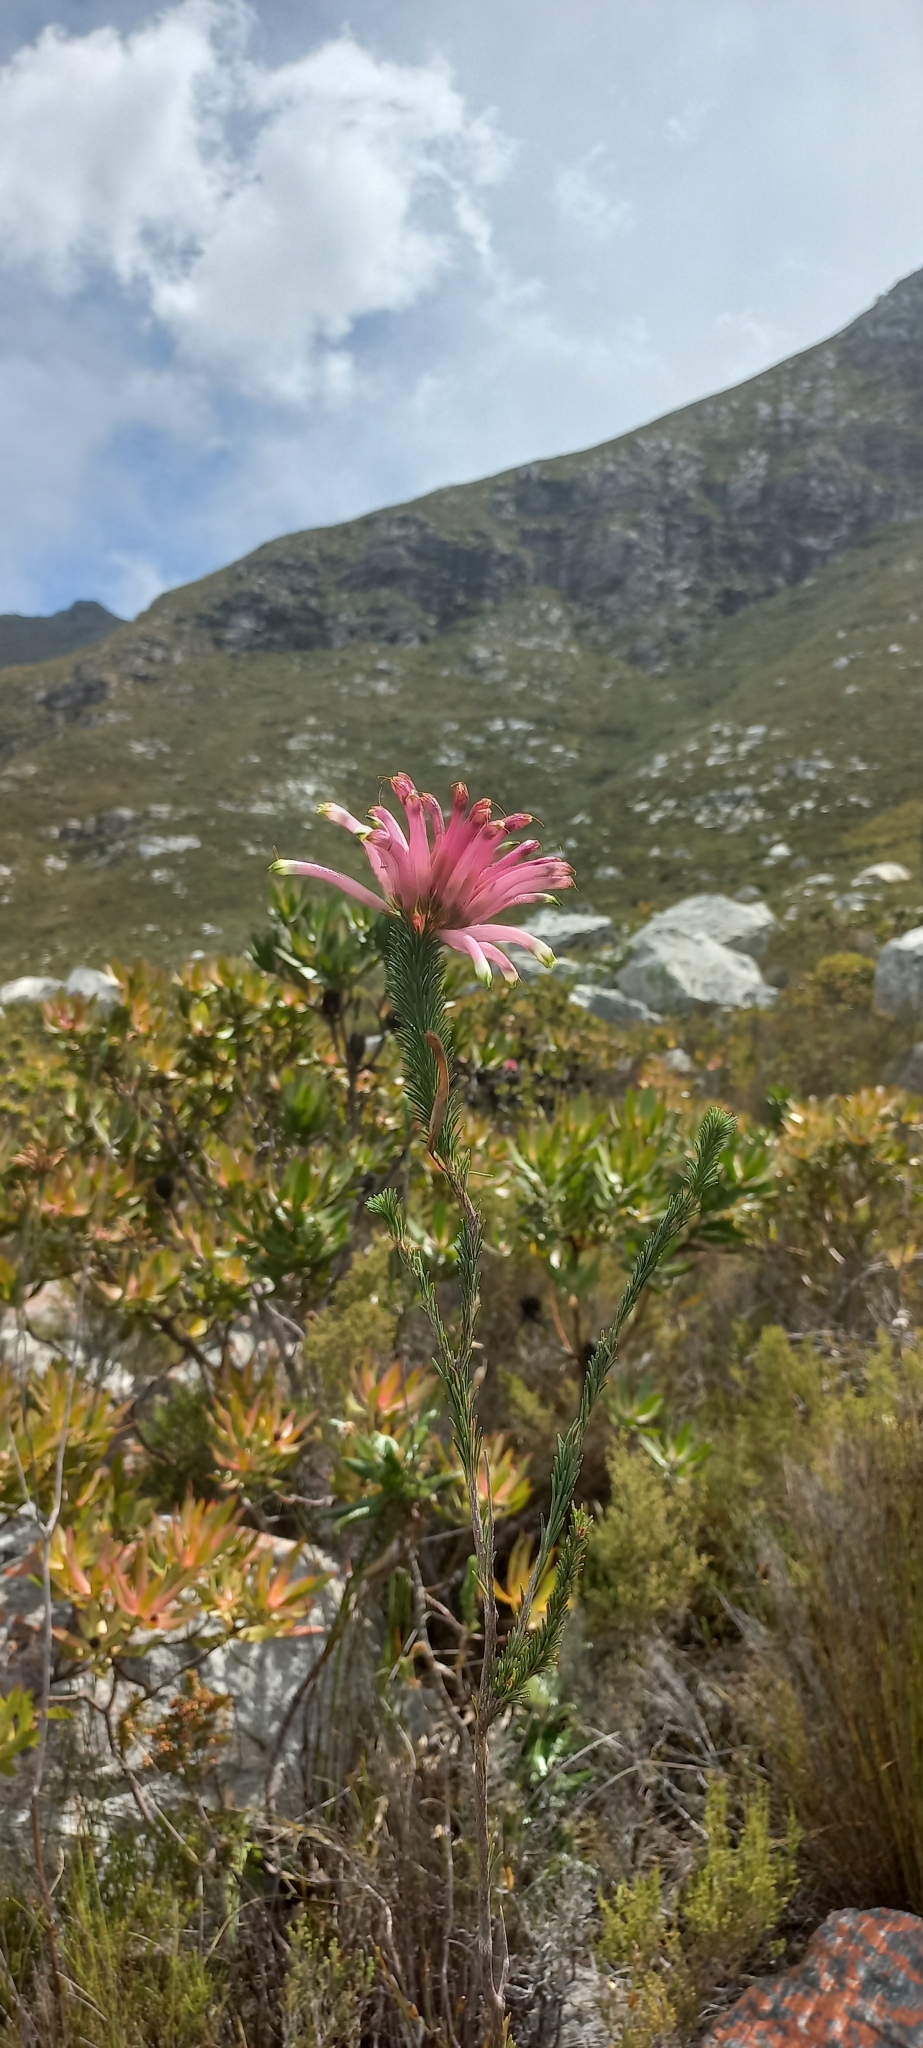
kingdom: Plantae
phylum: Tracheophyta
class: Magnoliopsida
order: Ericales
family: Ericaceae
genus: Erica
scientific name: Erica fascicularis
